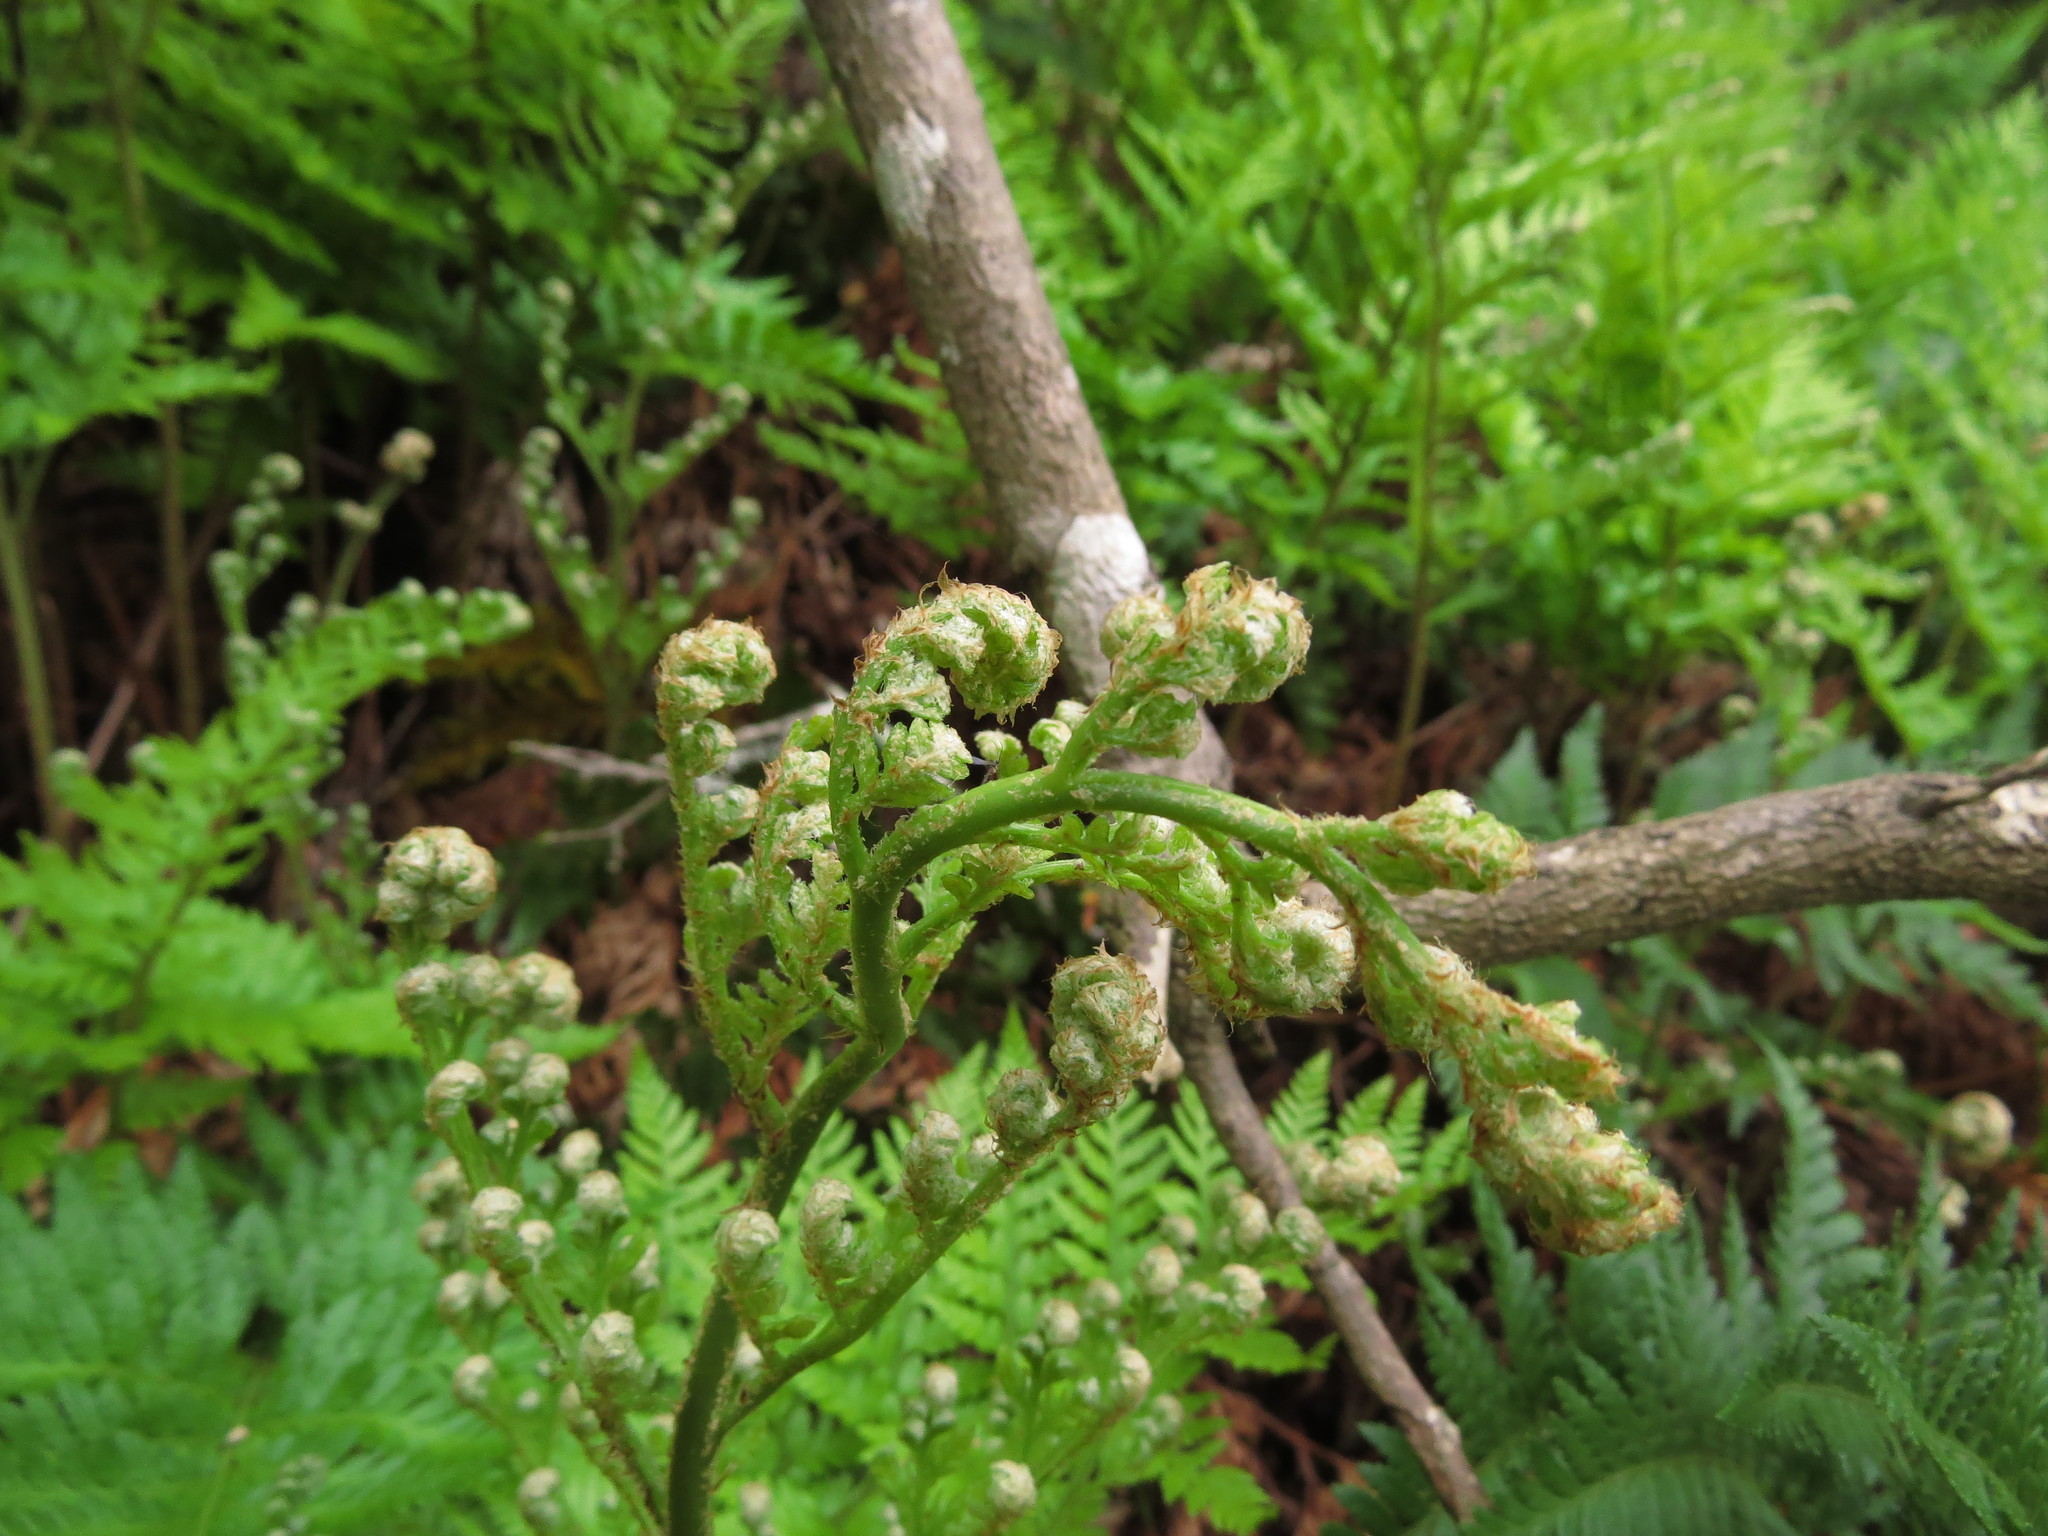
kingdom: Plantae
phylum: Tracheophyta
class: Polypodiopsida
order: Polypodiales
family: Dryopteridaceae
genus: Rumohra
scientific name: Rumohra adiantiformis
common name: Leather fern
